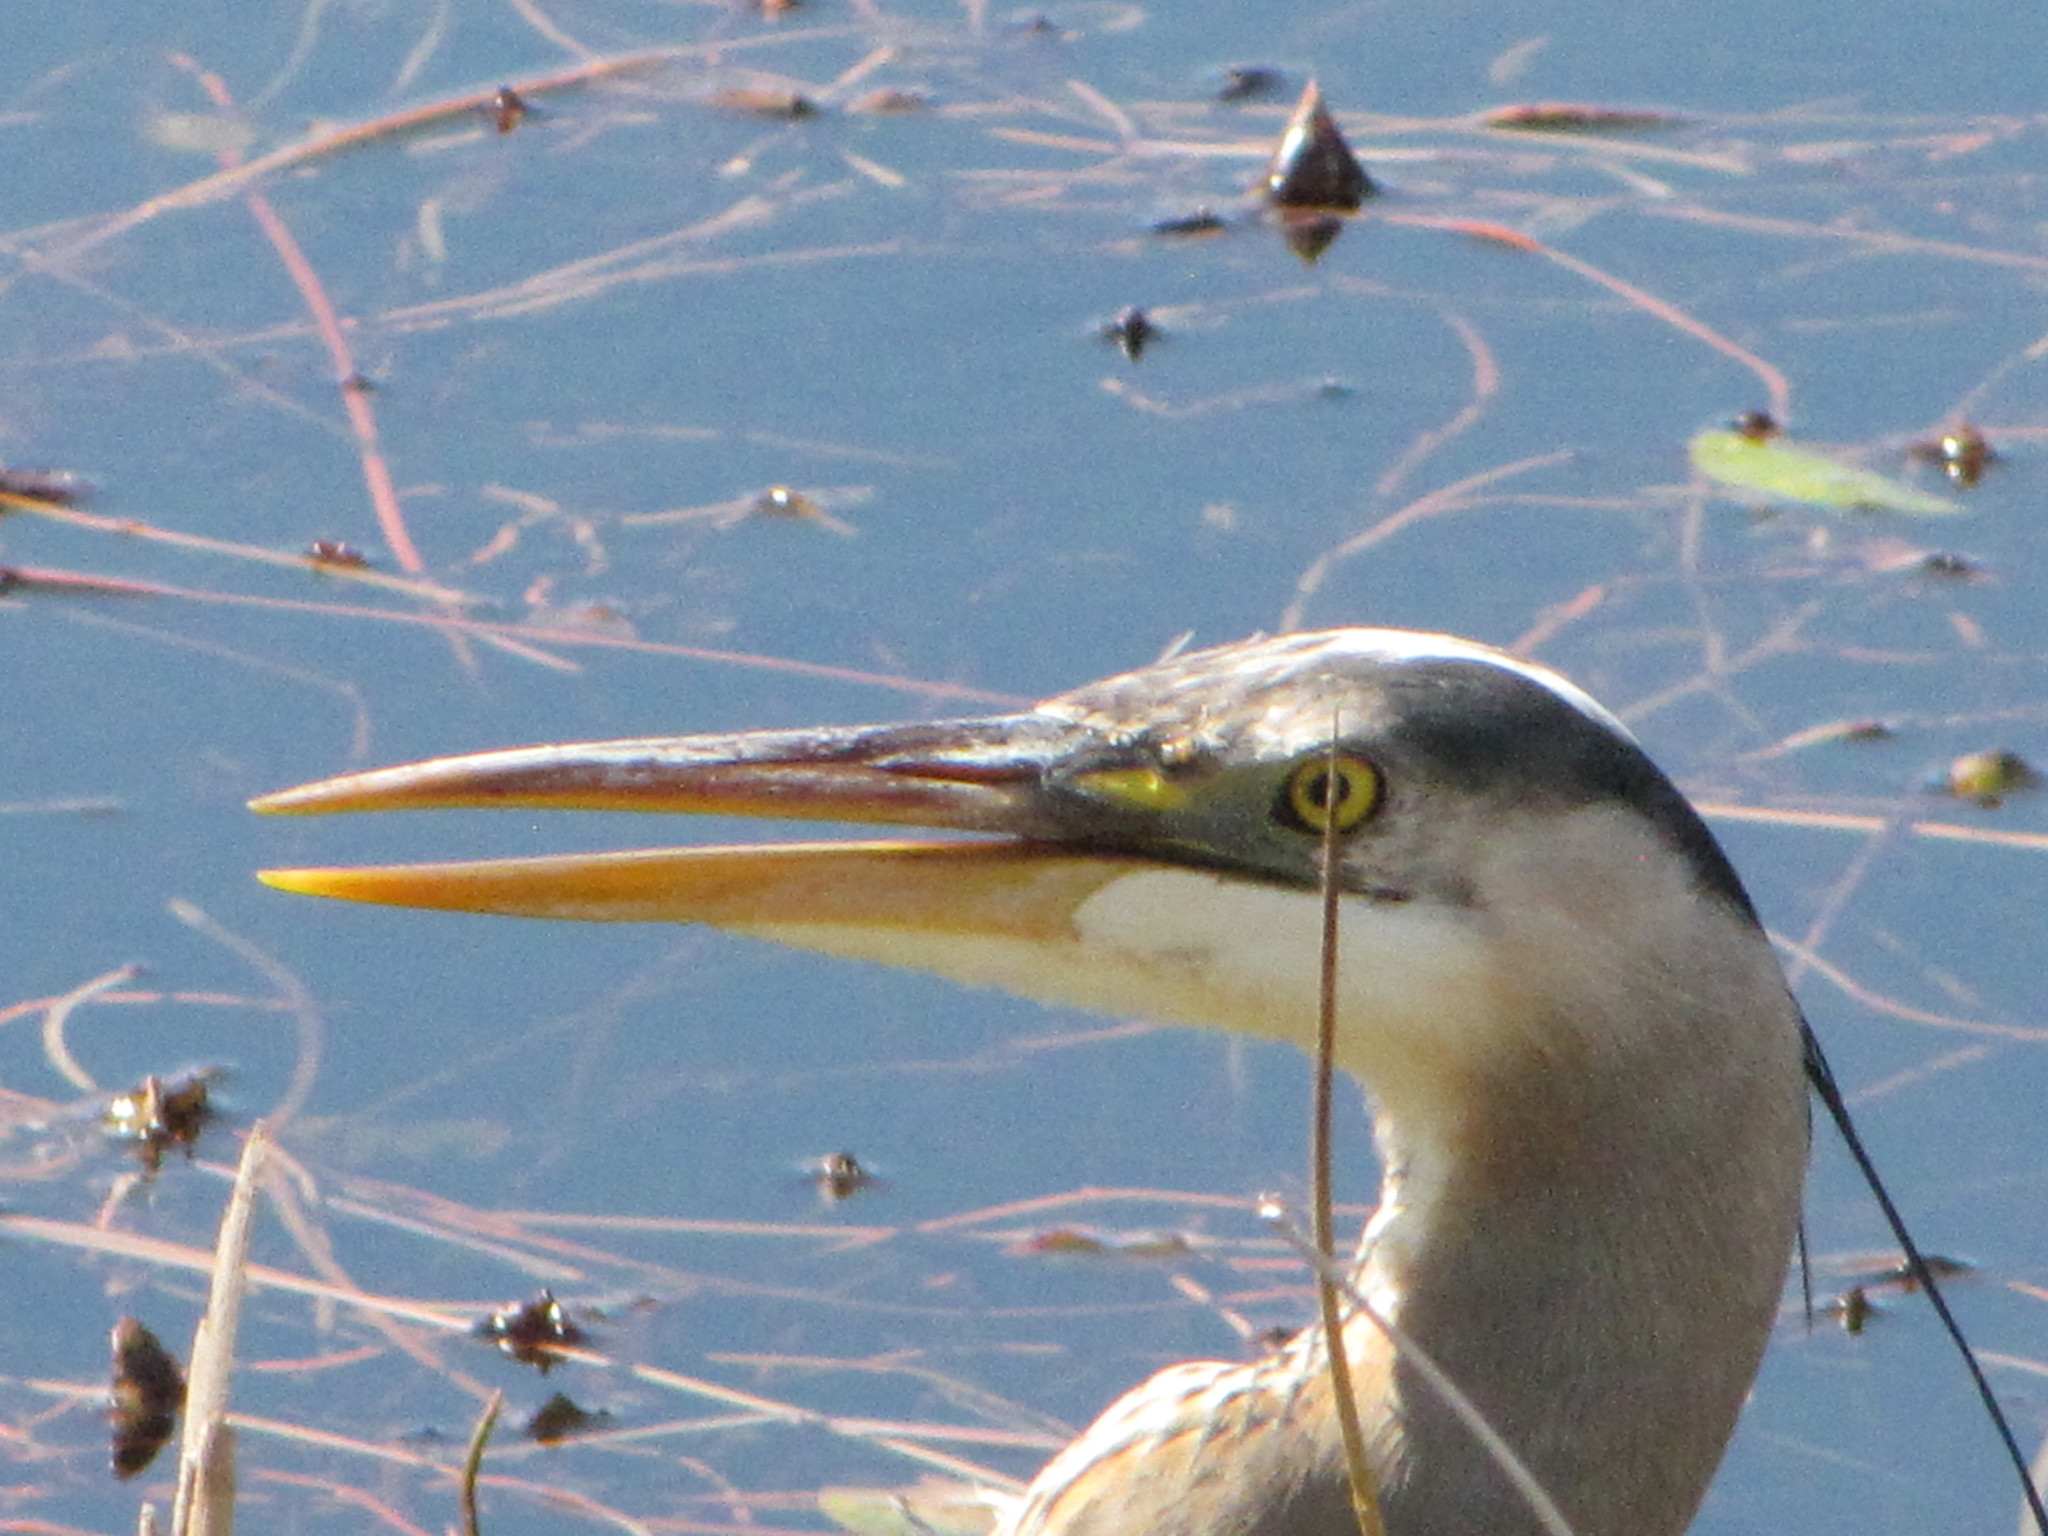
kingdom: Animalia
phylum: Chordata
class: Aves
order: Pelecaniformes
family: Ardeidae
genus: Ardea
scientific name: Ardea herodias
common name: Great blue heron
